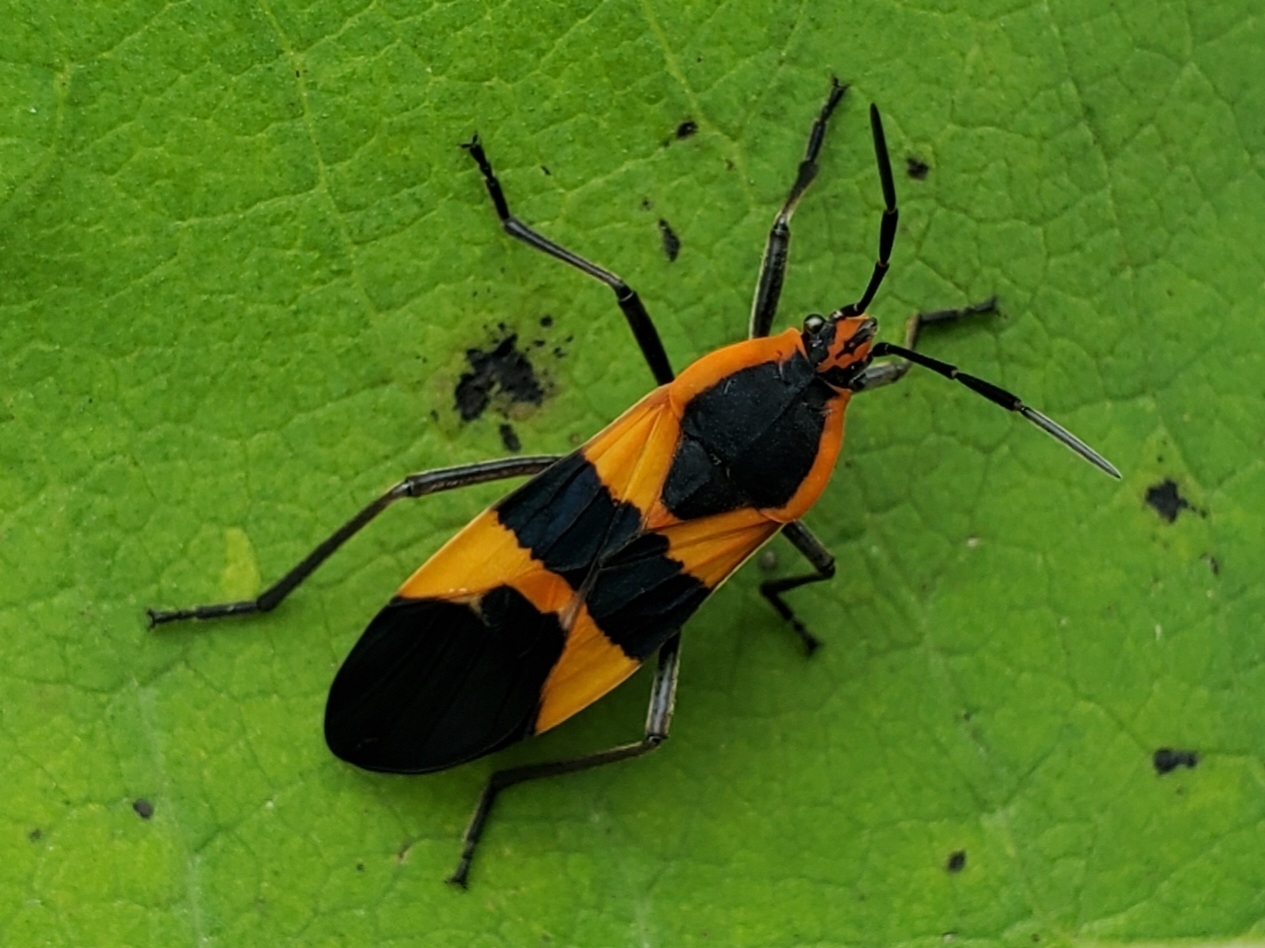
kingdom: Animalia
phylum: Arthropoda
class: Insecta
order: Hemiptera
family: Lygaeidae
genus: Oncopeltus
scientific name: Oncopeltus fasciatus
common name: Large milkweed bug
